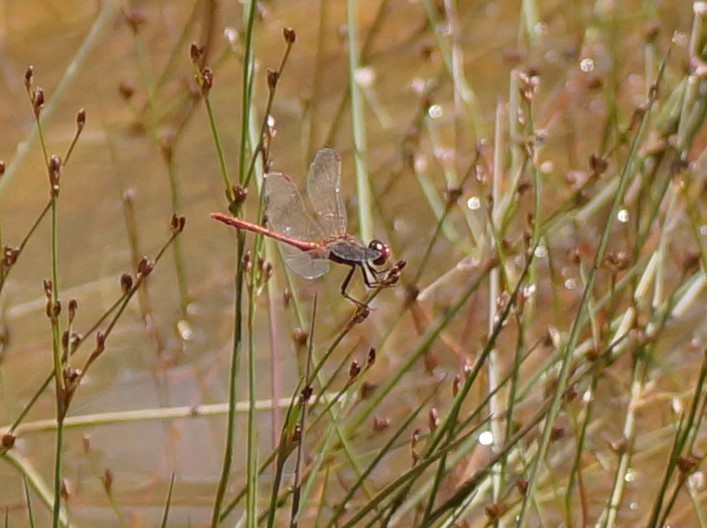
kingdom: Animalia
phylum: Arthropoda
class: Insecta
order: Odonata
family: Libellulidae
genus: Diplacodes
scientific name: Diplacodes bipunctata
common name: Red percher dragonfly
